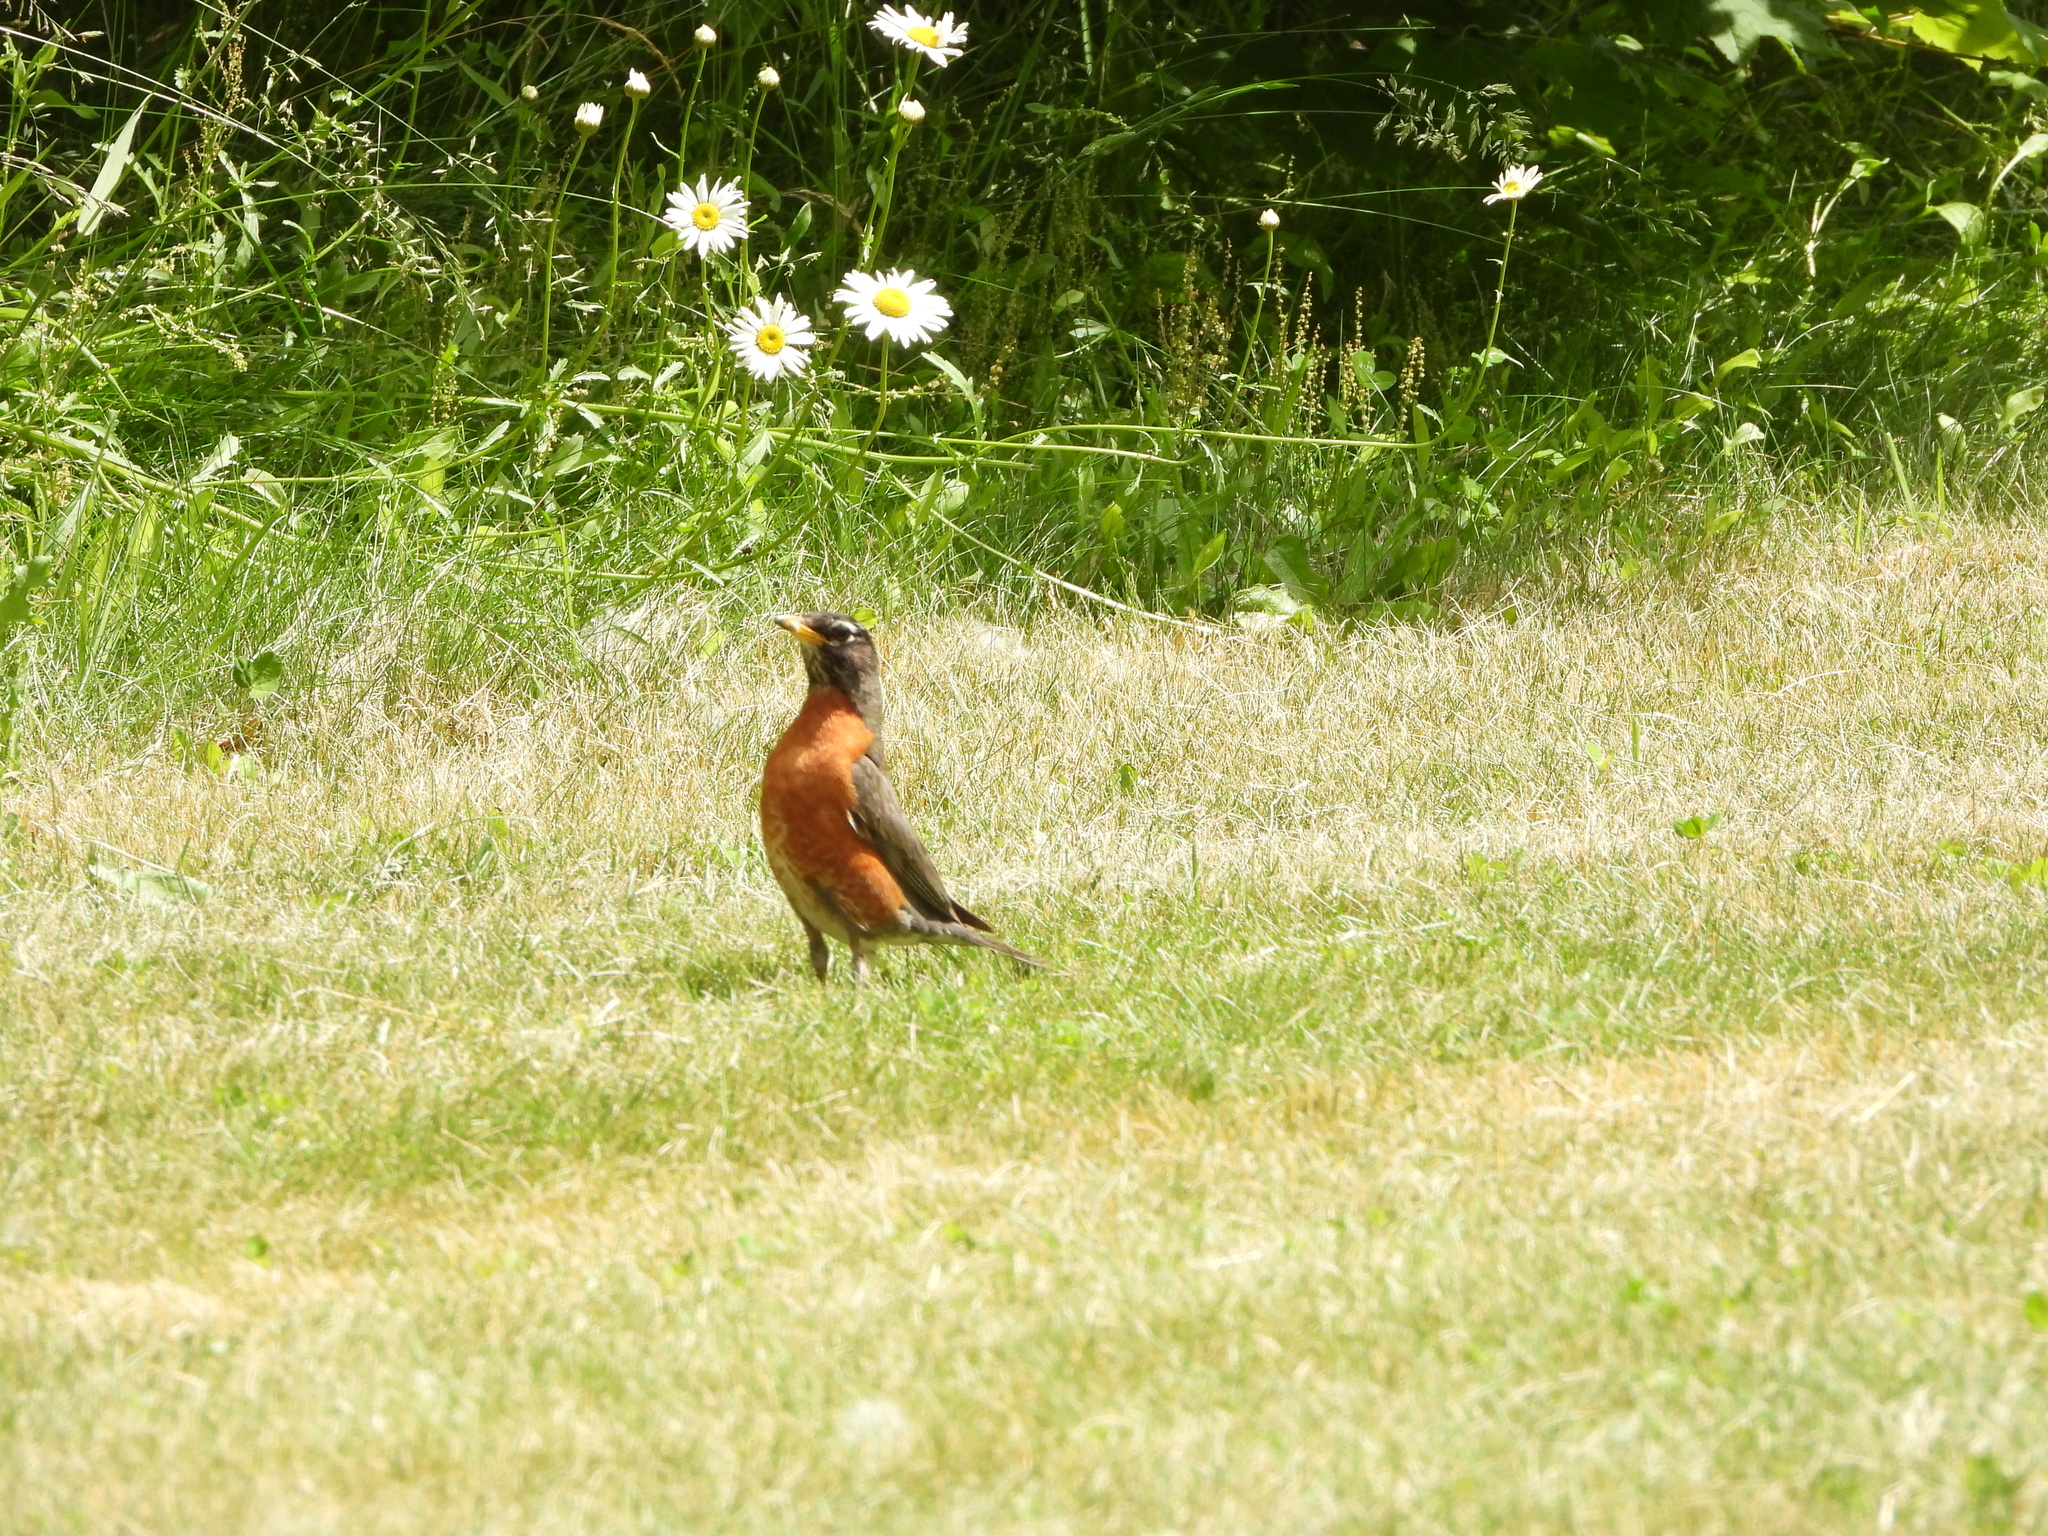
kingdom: Animalia
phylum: Chordata
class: Aves
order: Passeriformes
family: Turdidae
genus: Turdus
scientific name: Turdus migratorius
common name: American robin
